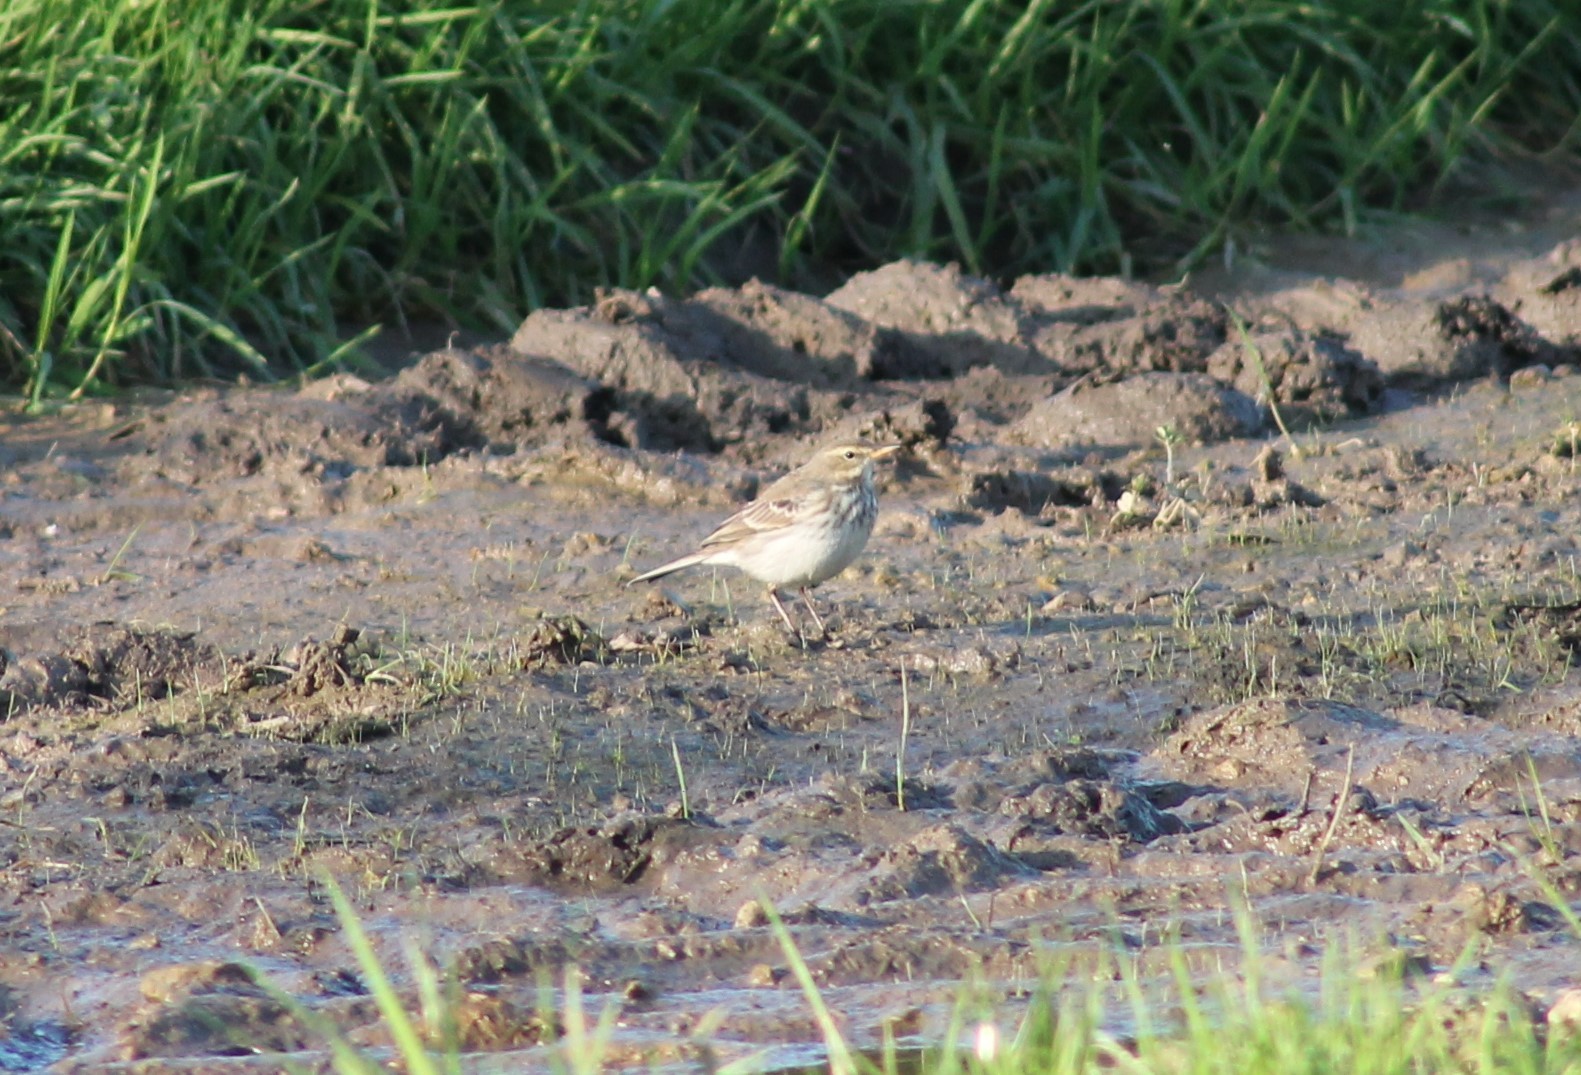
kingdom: Animalia
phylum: Chordata
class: Aves
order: Passeriformes
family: Motacillidae
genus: Anthus
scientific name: Anthus spinoletta
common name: Water pipit
